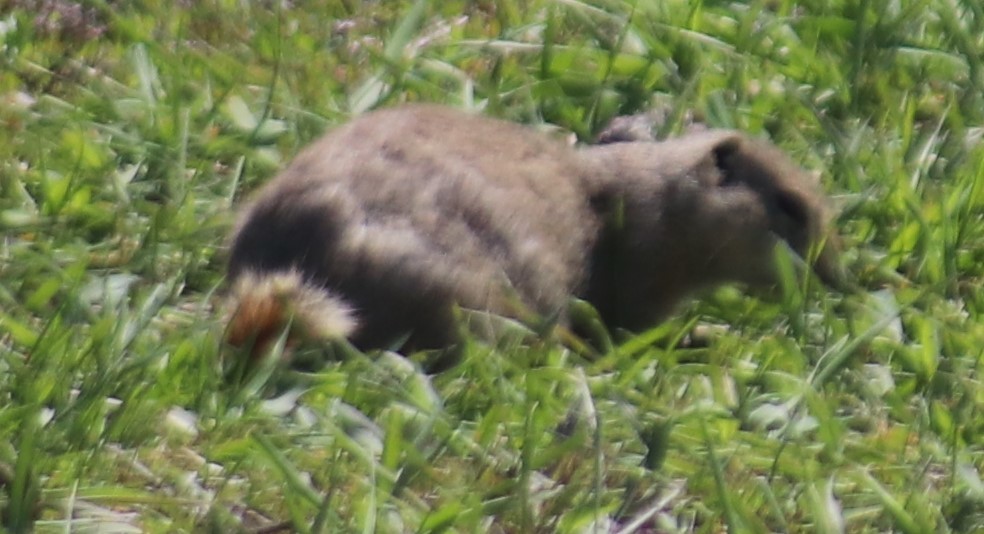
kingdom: Animalia
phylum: Chordata
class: Mammalia
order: Rodentia
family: Sciuridae
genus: Urocitellus
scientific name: Urocitellus richardsonii
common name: Richardson's ground squirrel
